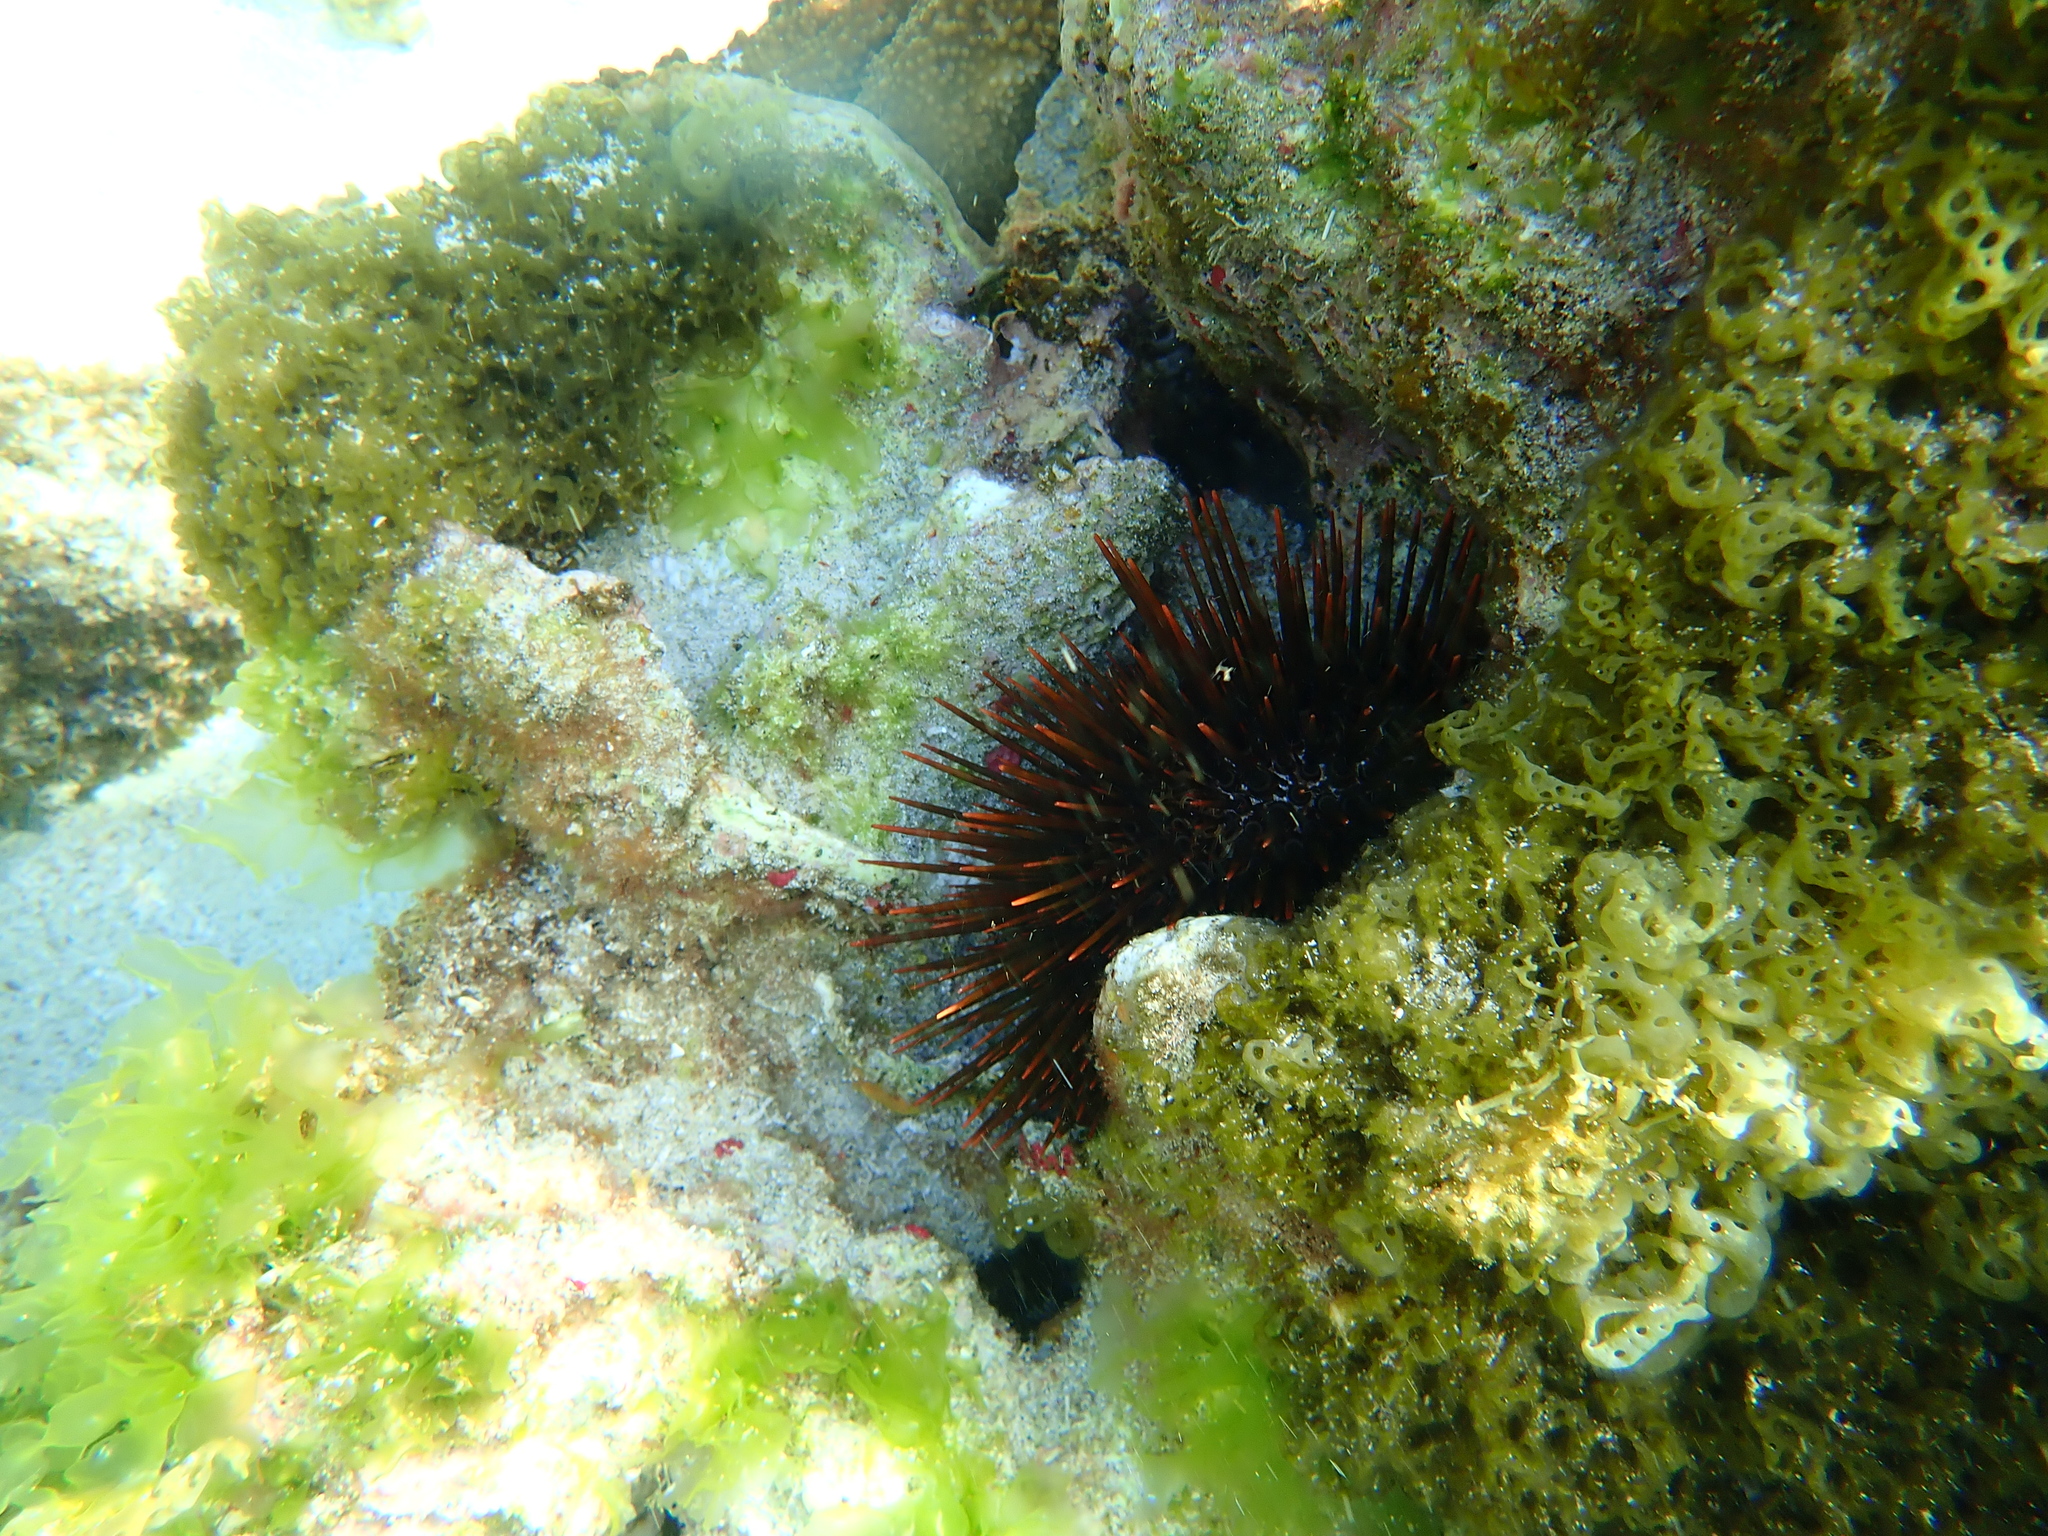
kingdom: Animalia
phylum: Echinodermata
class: Echinoidea
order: Camarodonta
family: Echinometridae
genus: Heliocidaris
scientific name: Heliocidaris tuberculata
